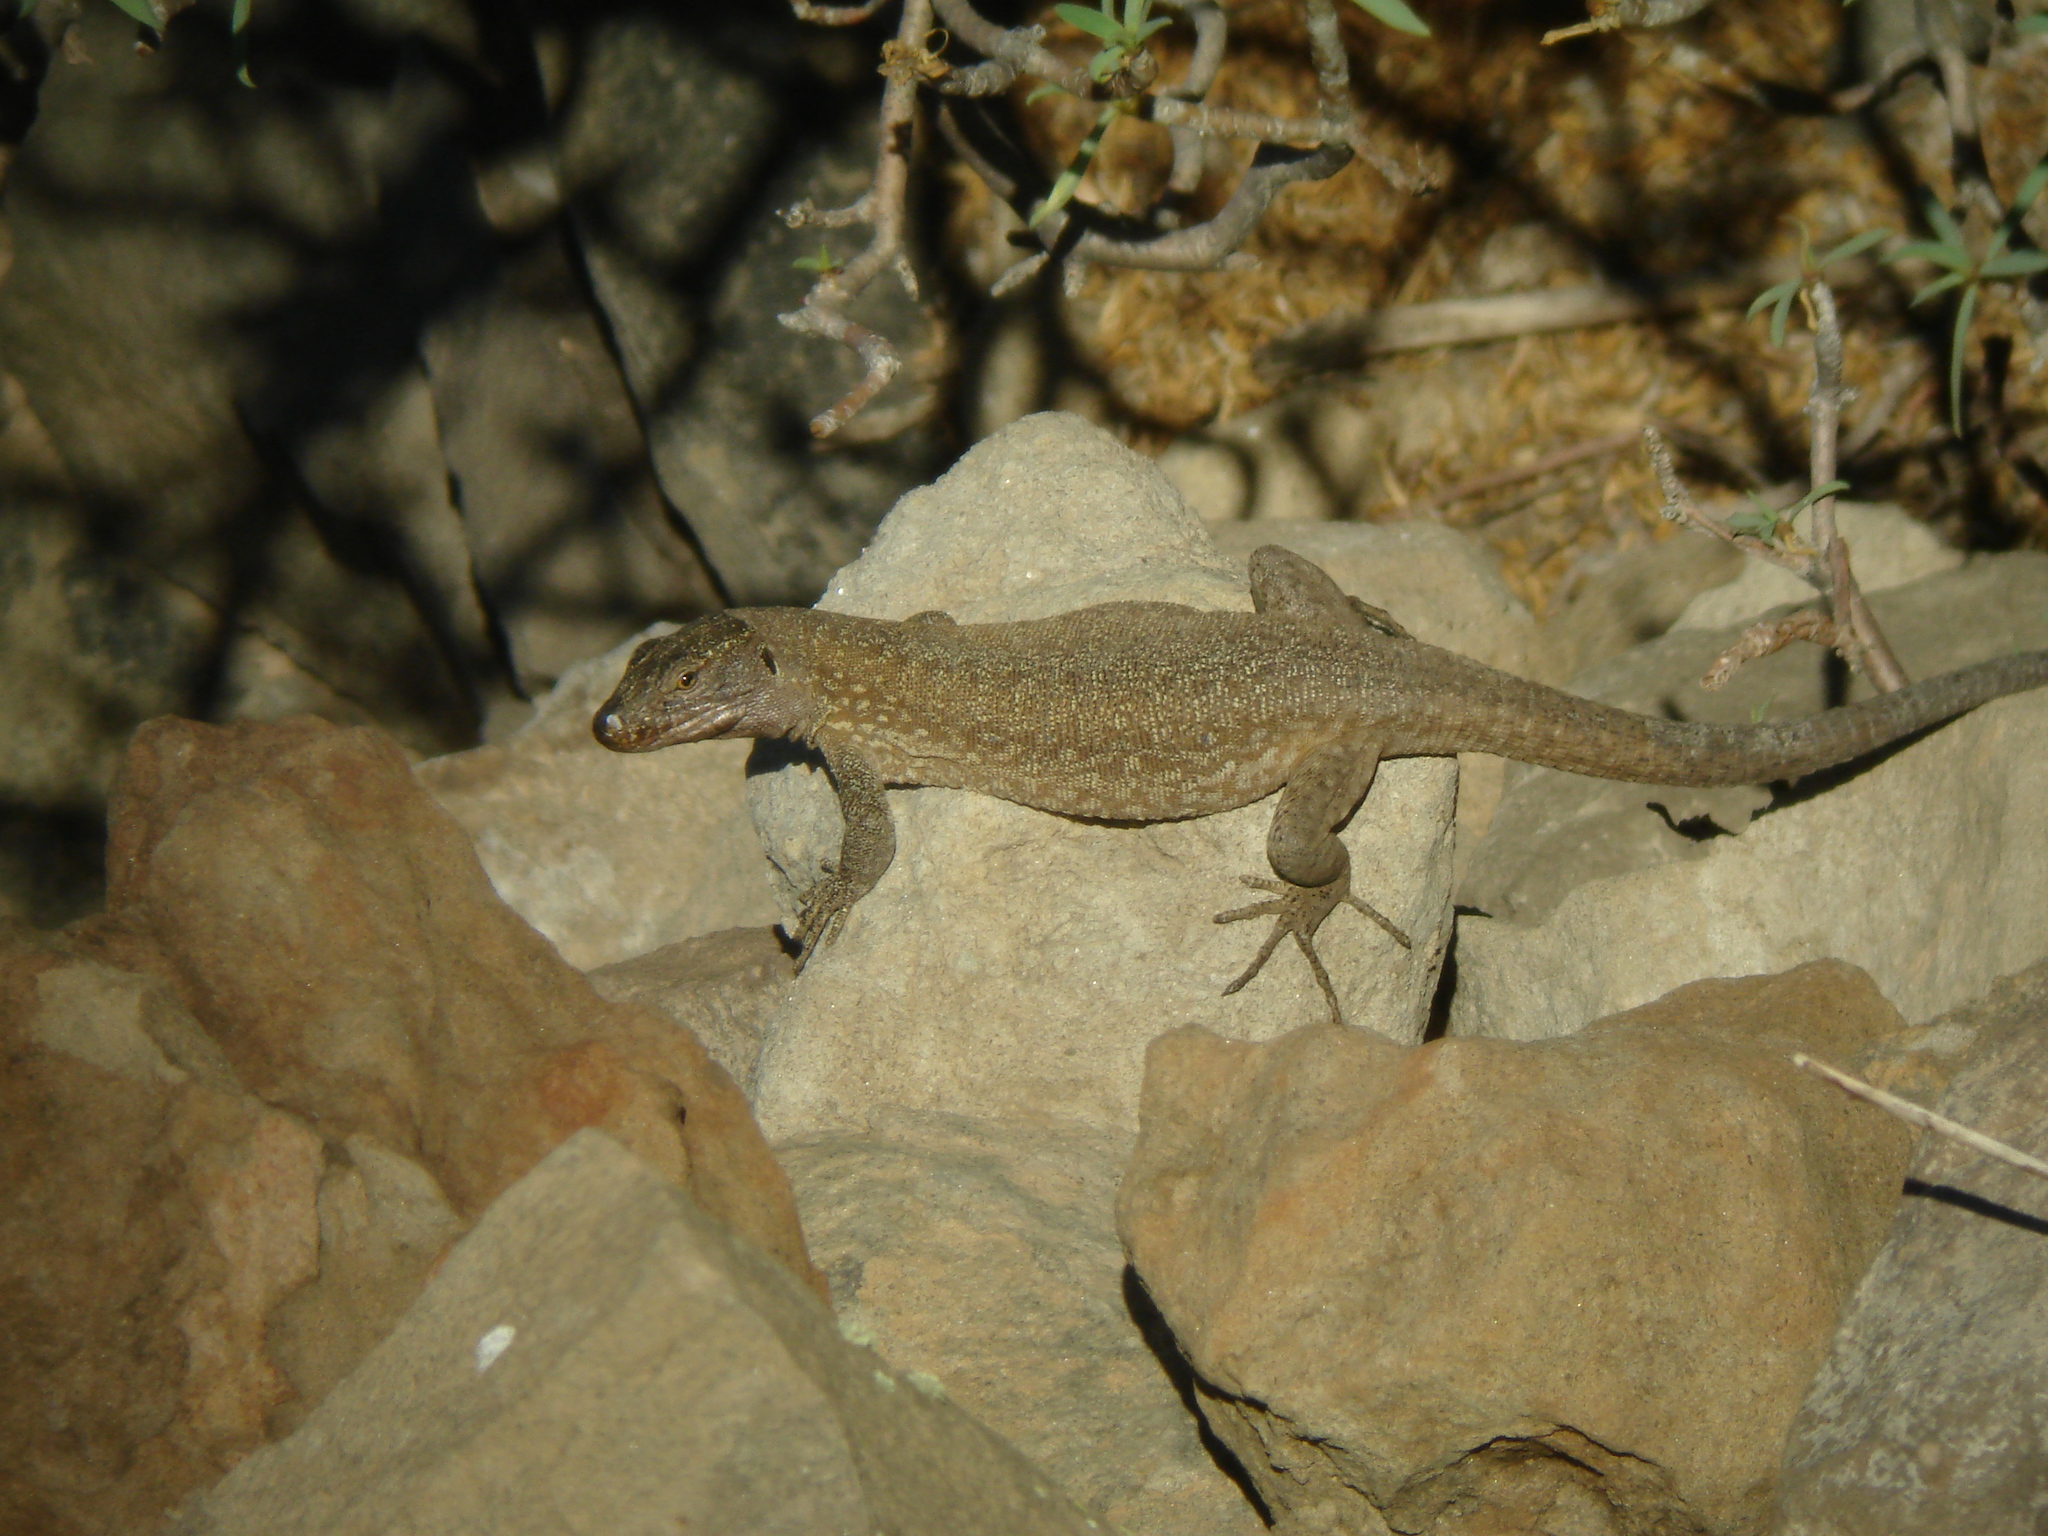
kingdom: Animalia
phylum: Chordata
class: Squamata
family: Lacertidae
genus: Gallotia
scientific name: Gallotia intermedia
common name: Tenerife speckled lizard
